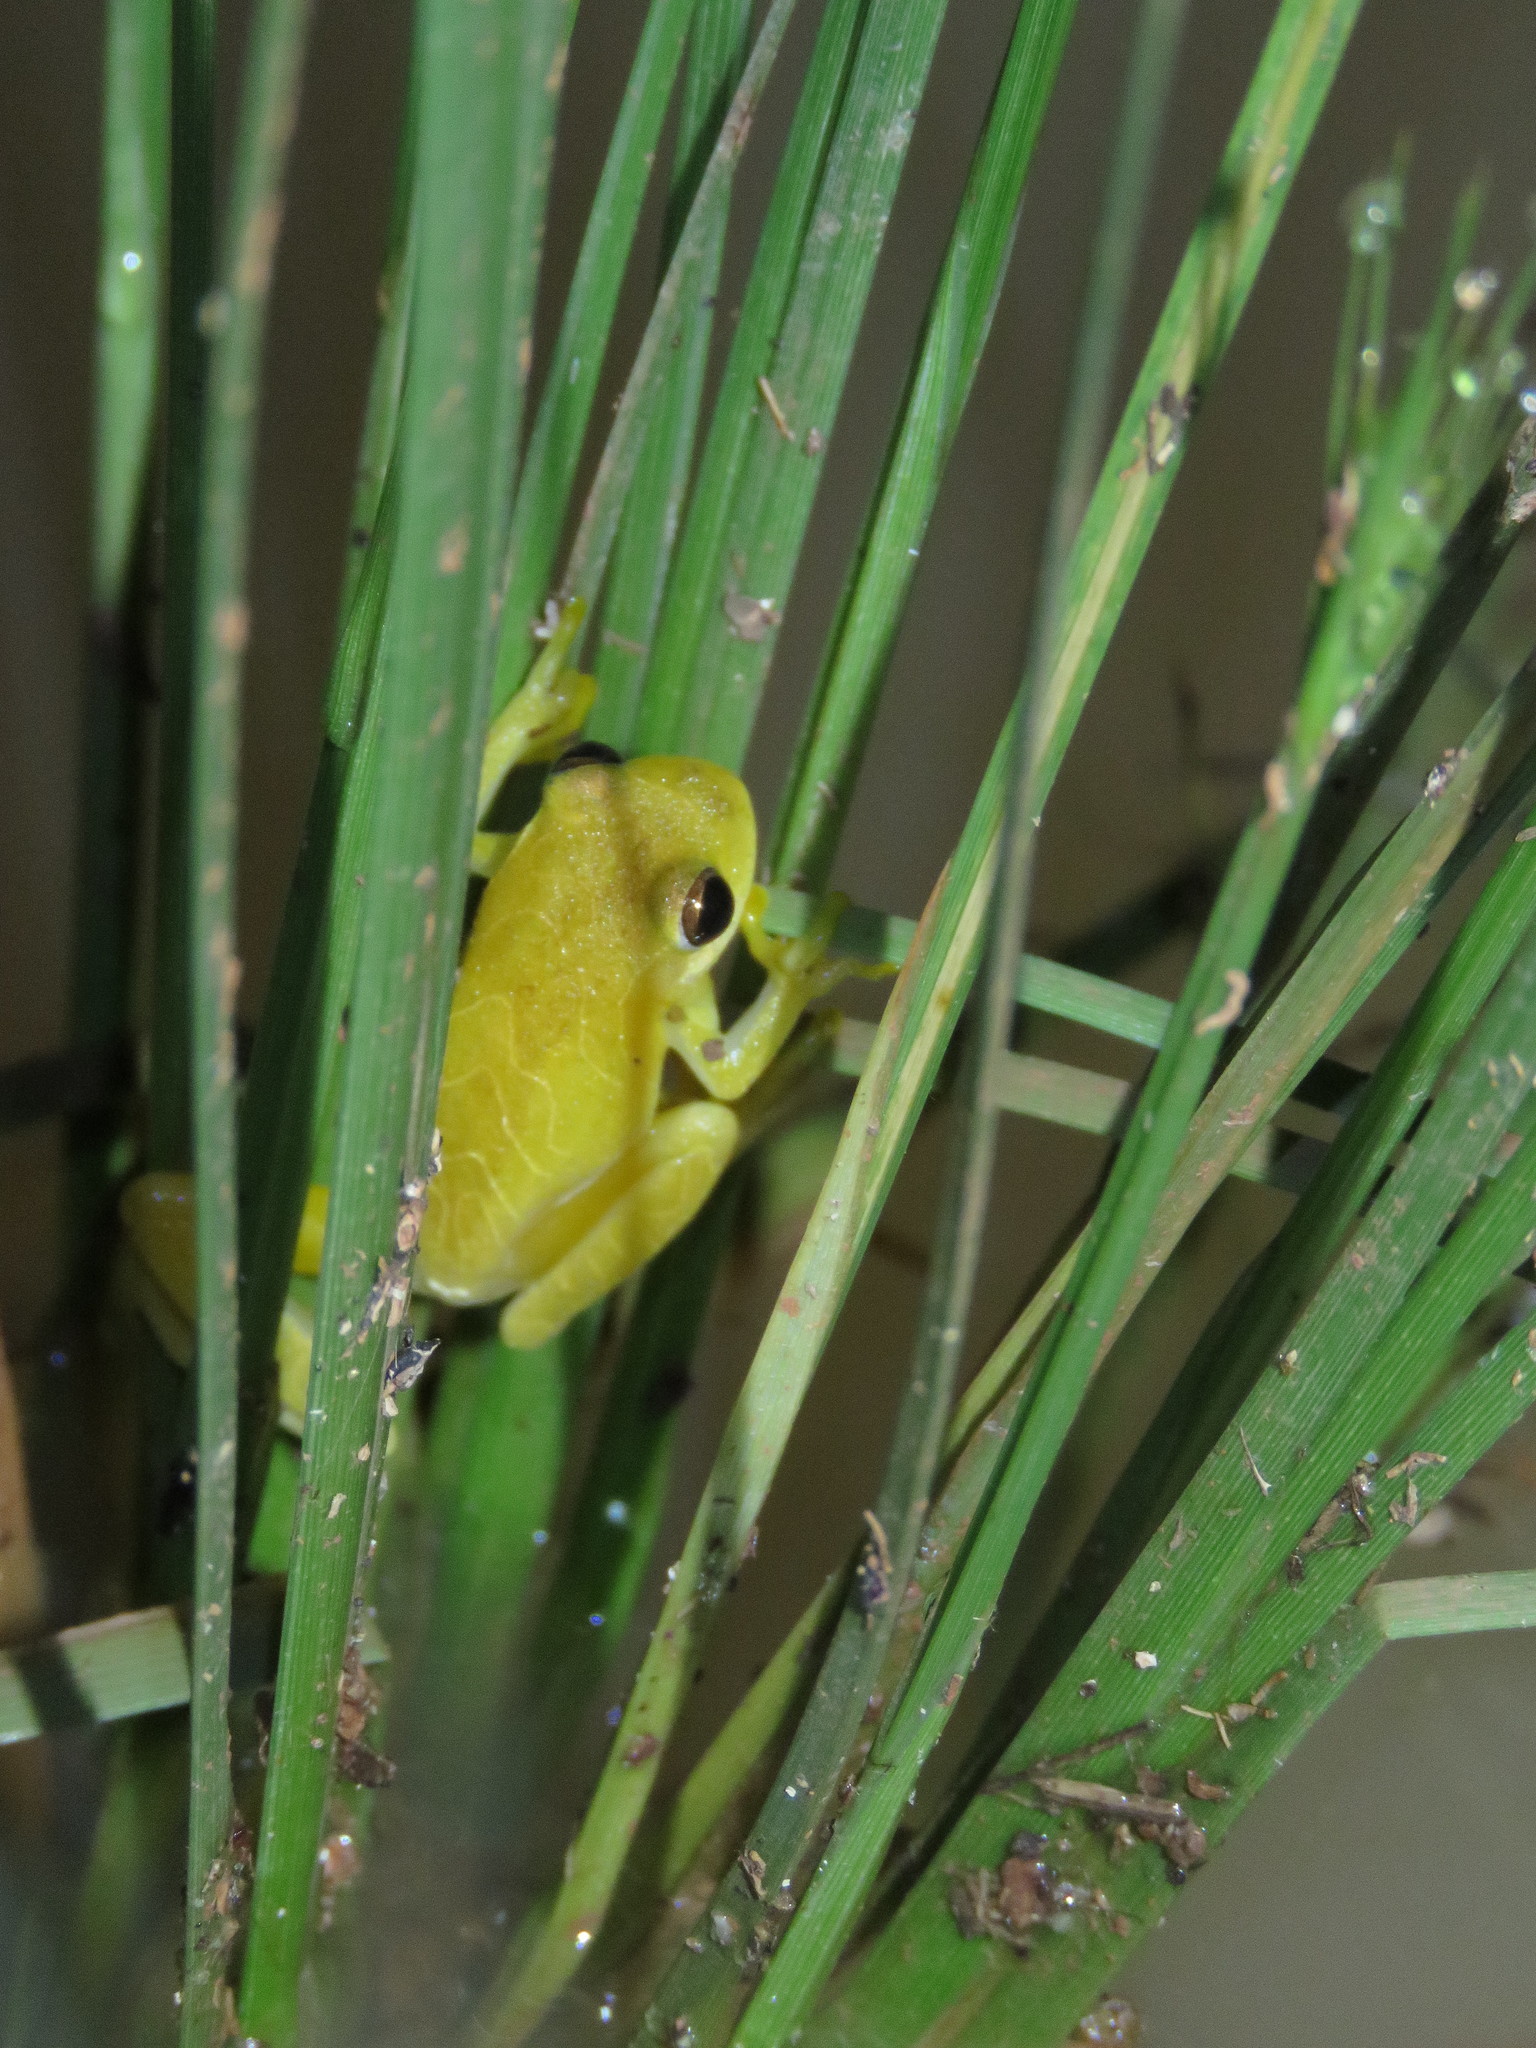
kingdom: Animalia
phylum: Chordata
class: Amphibia
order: Anura
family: Hylidae
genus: Dendropsophus
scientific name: Dendropsophus minutus
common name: Lesser treefrog
